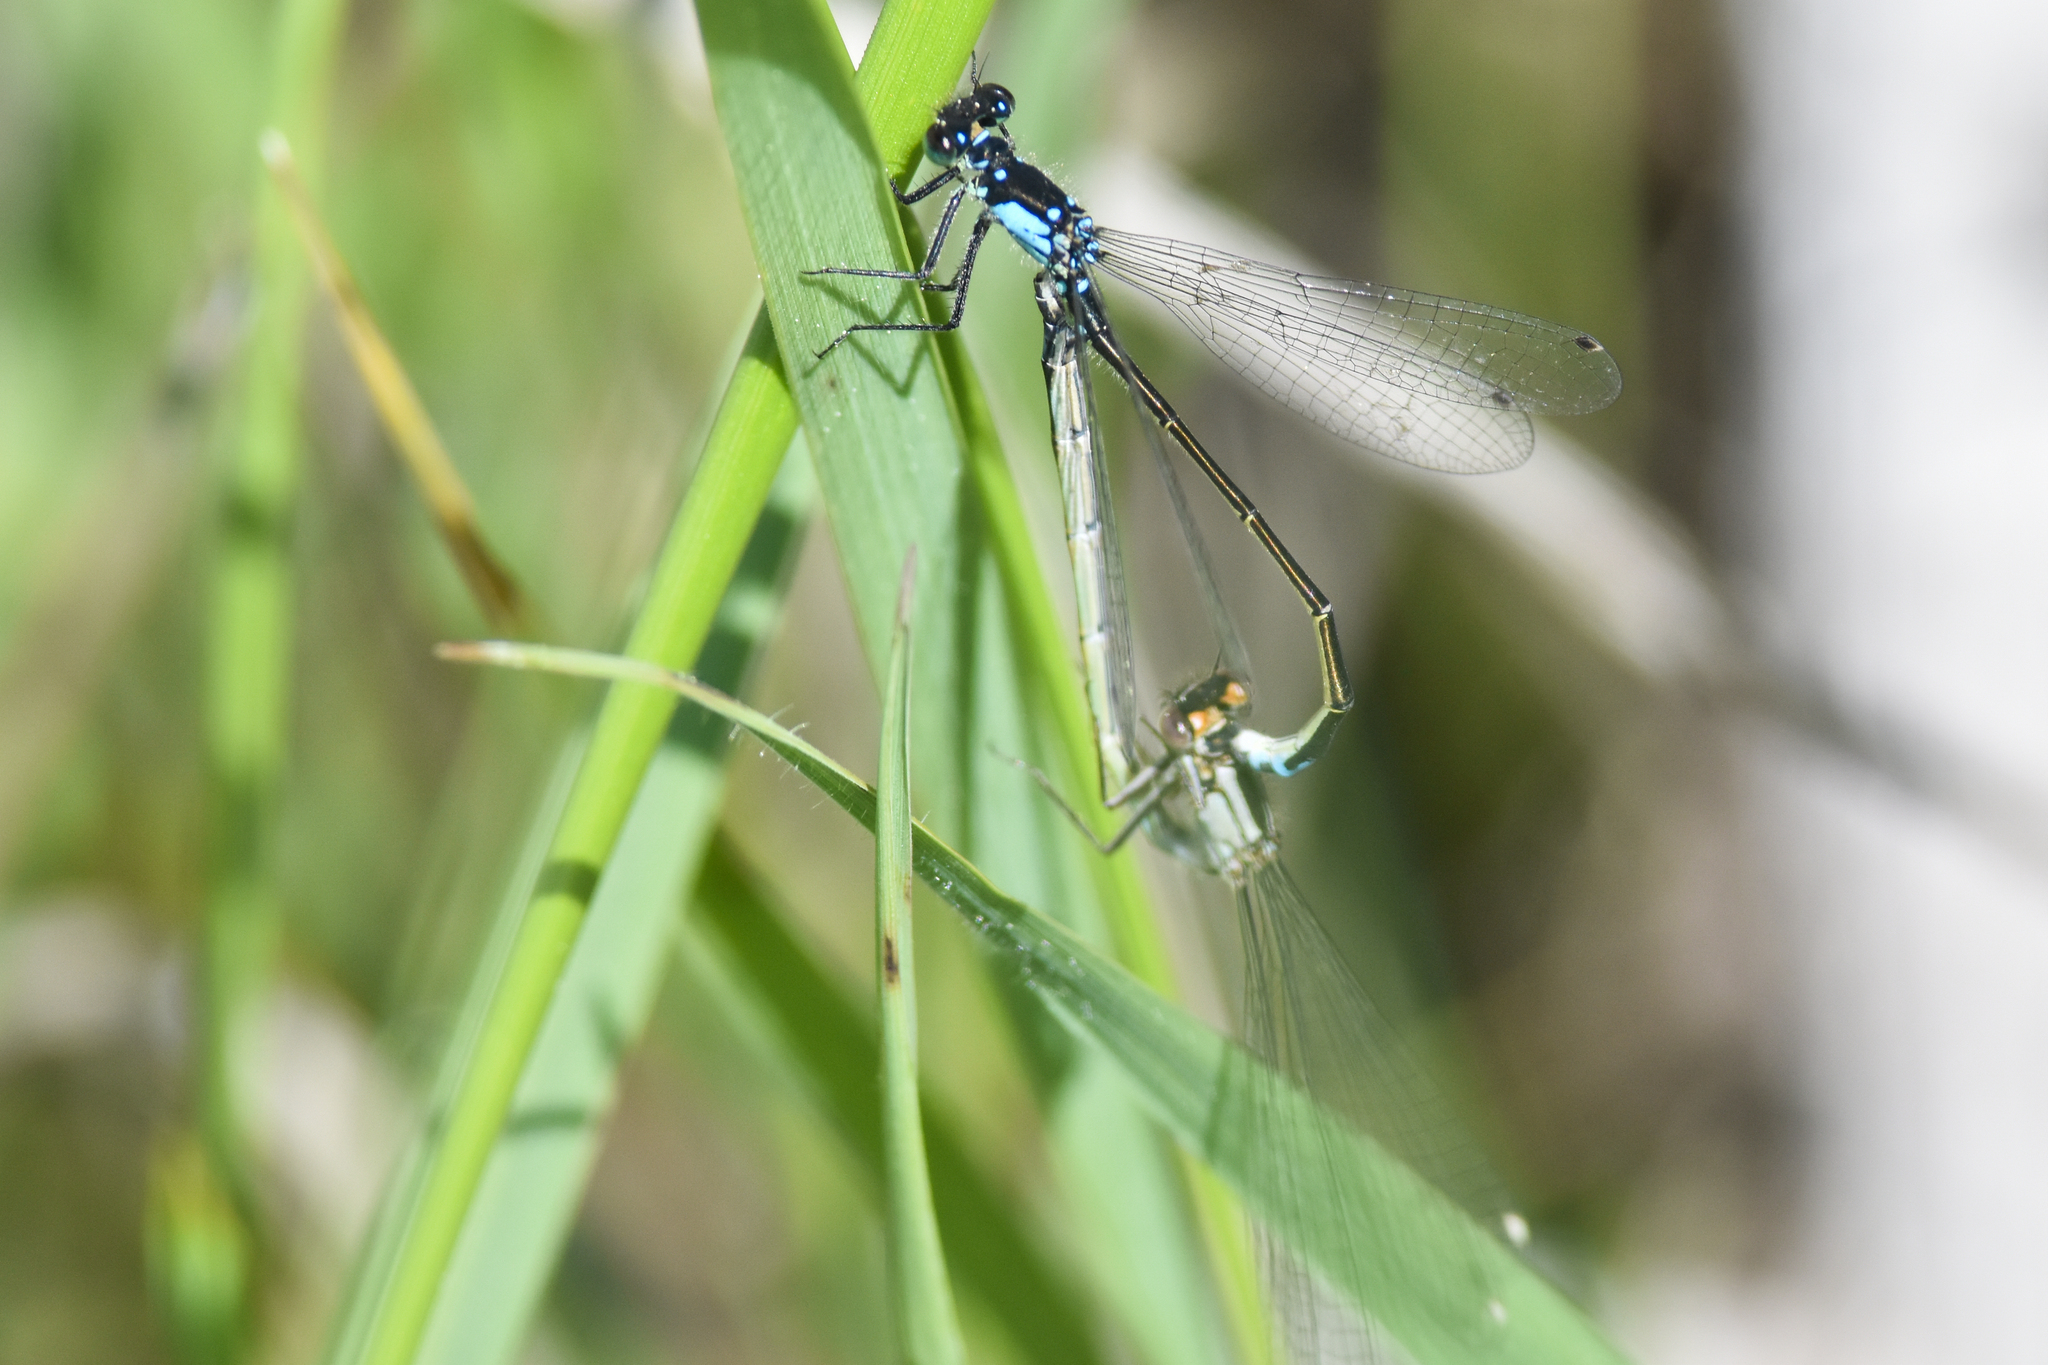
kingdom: Animalia
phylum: Arthropoda
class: Insecta
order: Odonata
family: Coenagrionidae
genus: Ischnura
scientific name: Ischnura cervula
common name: Pacific forktail
